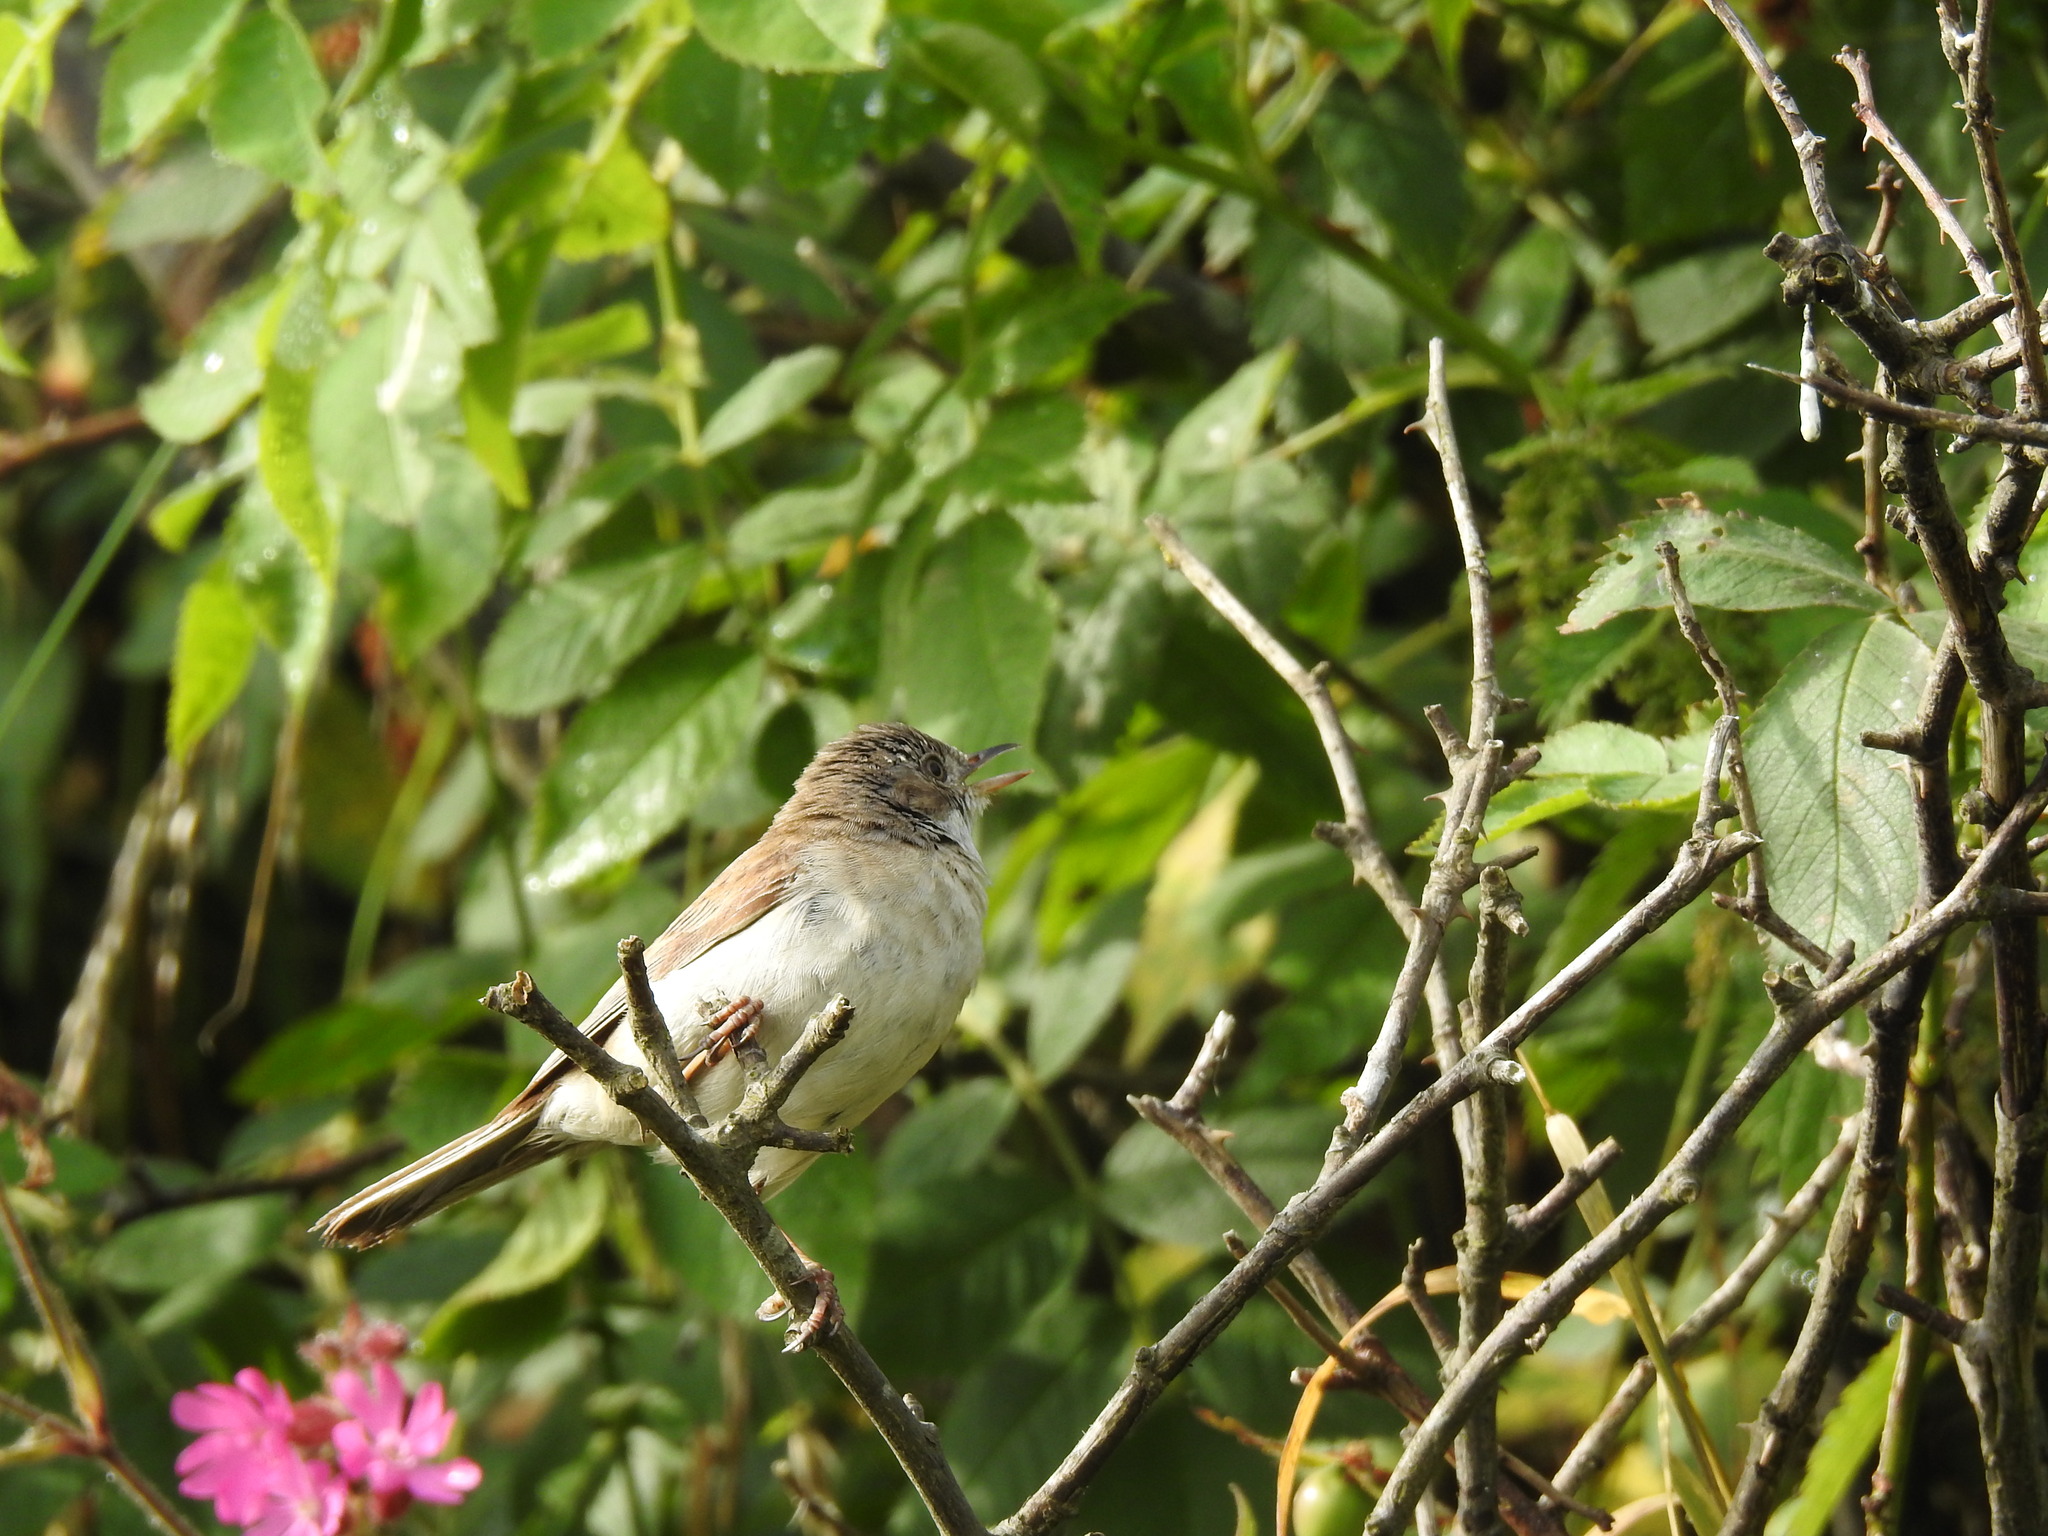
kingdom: Animalia
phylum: Chordata
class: Aves
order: Passeriformes
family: Sylviidae
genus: Sylvia
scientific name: Sylvia communis
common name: Common whitethroat
